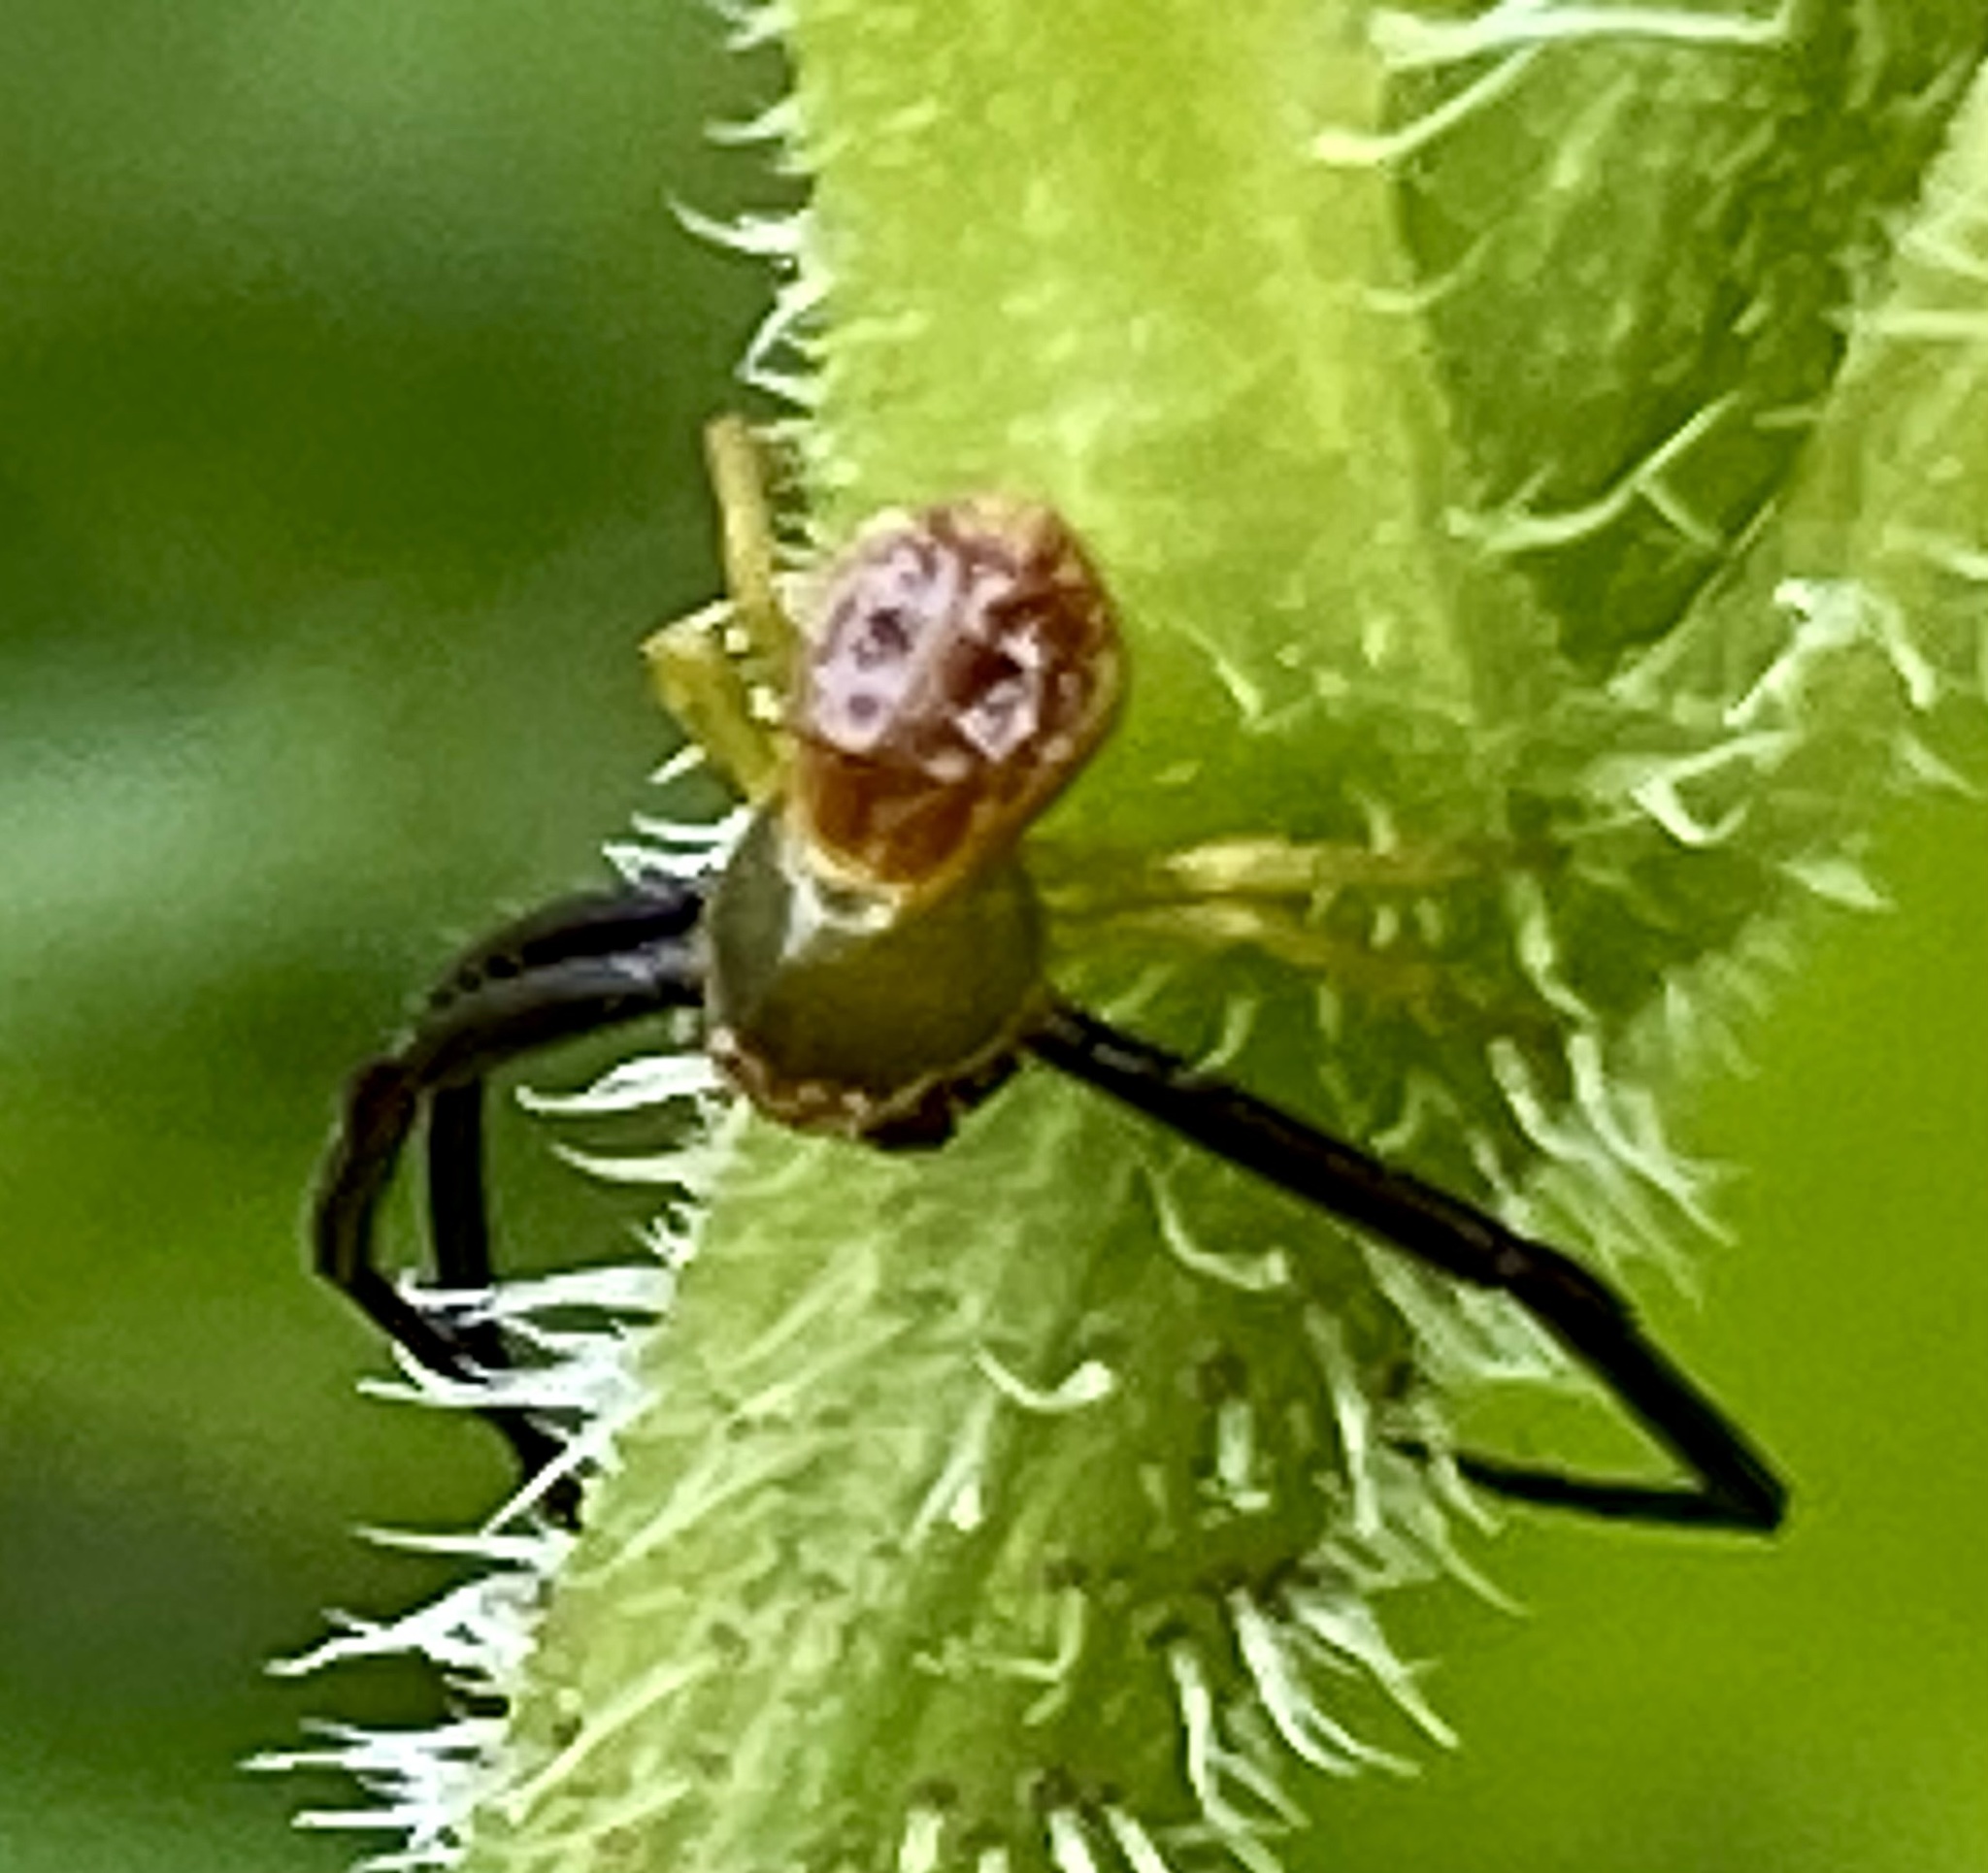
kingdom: Animalia
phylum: Arthropoda
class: Arachnida
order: Araneae
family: Thomisidae
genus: Misumenoides
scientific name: Misumenoides formosipes
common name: White-banded crab spider
